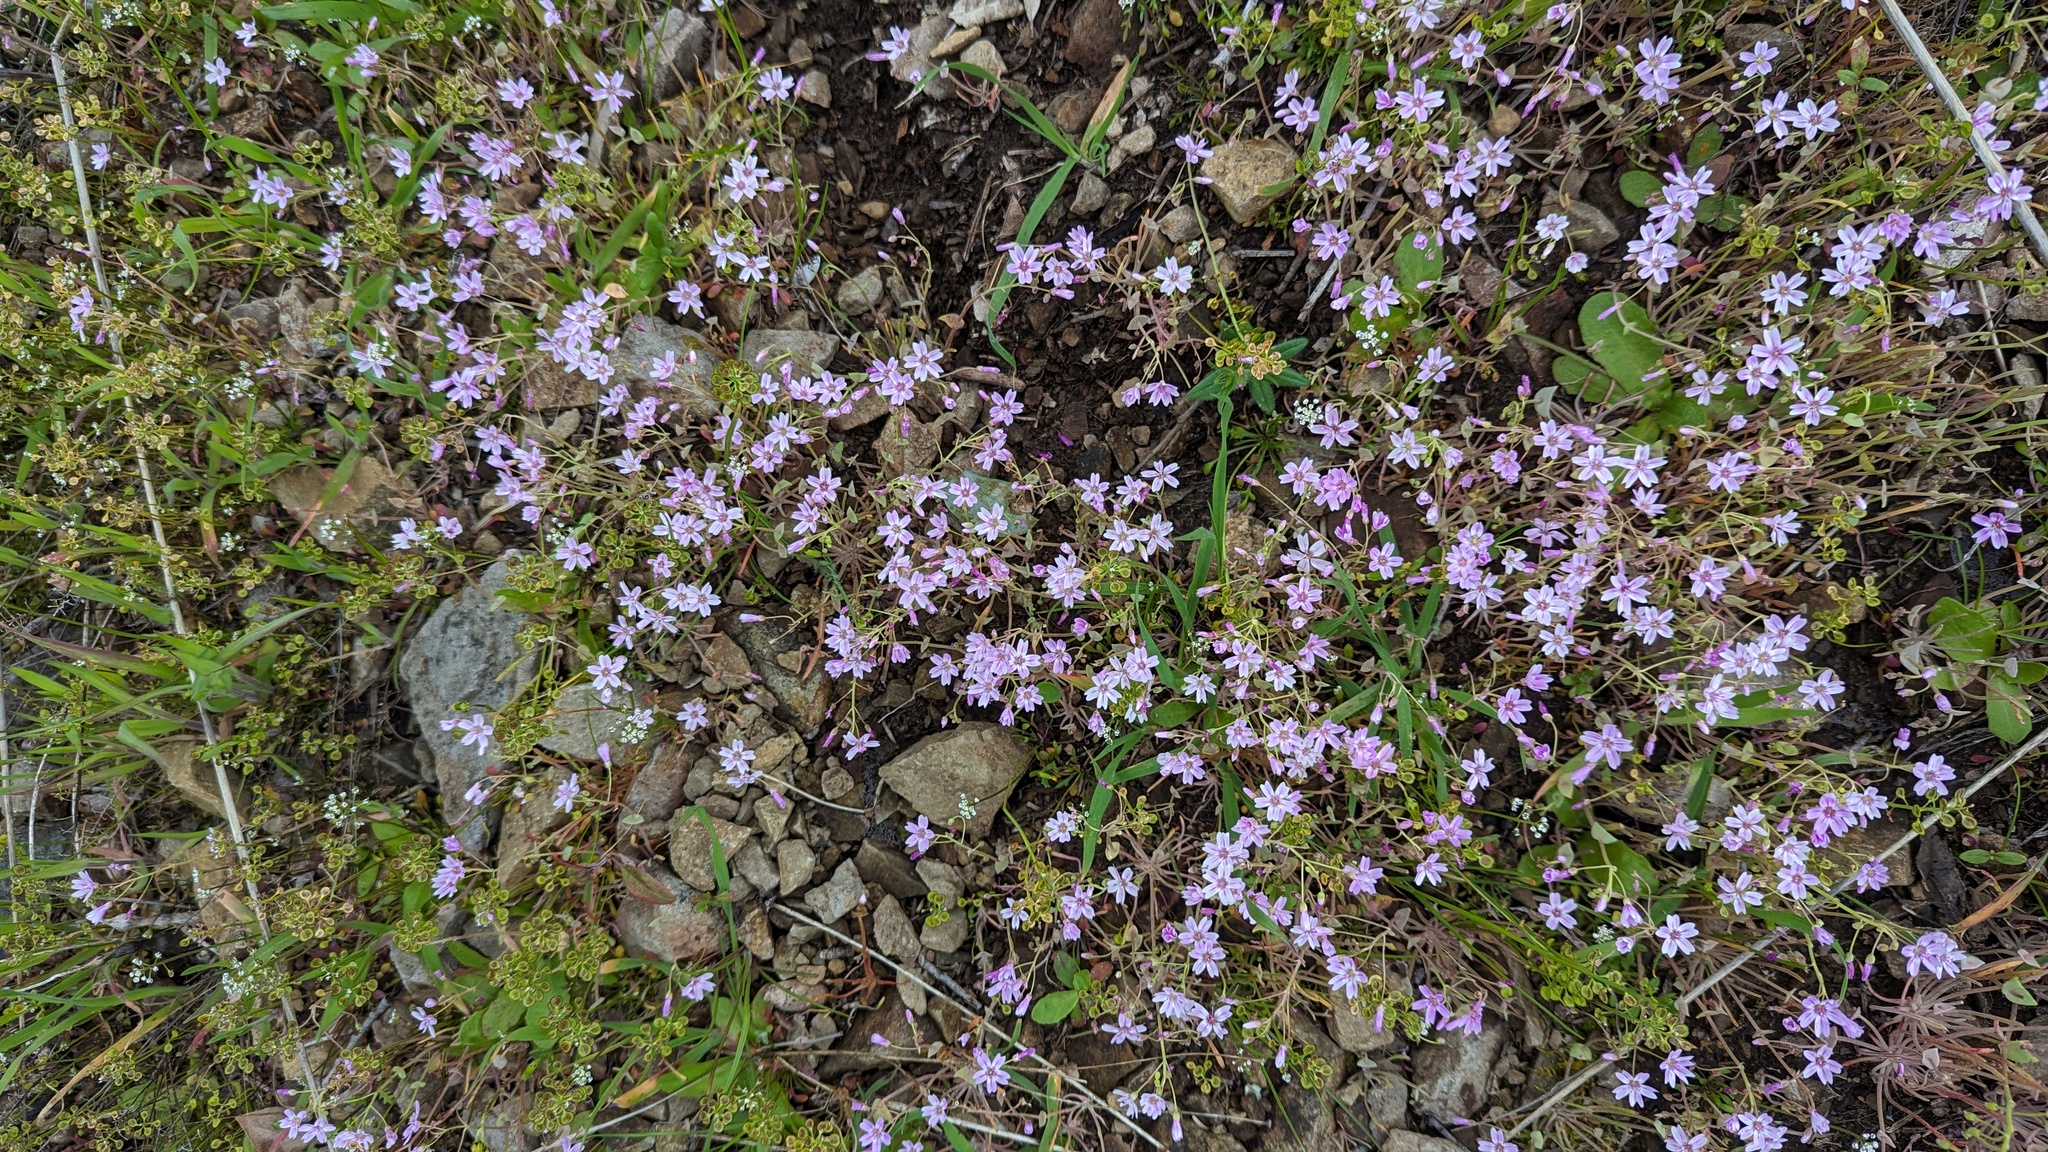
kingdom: Plantae
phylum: Tracheophyta
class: Magnoliopsida
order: Caryophyllales
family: Montiaceae
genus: Claytonia
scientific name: Claytonia gypsophiloides
